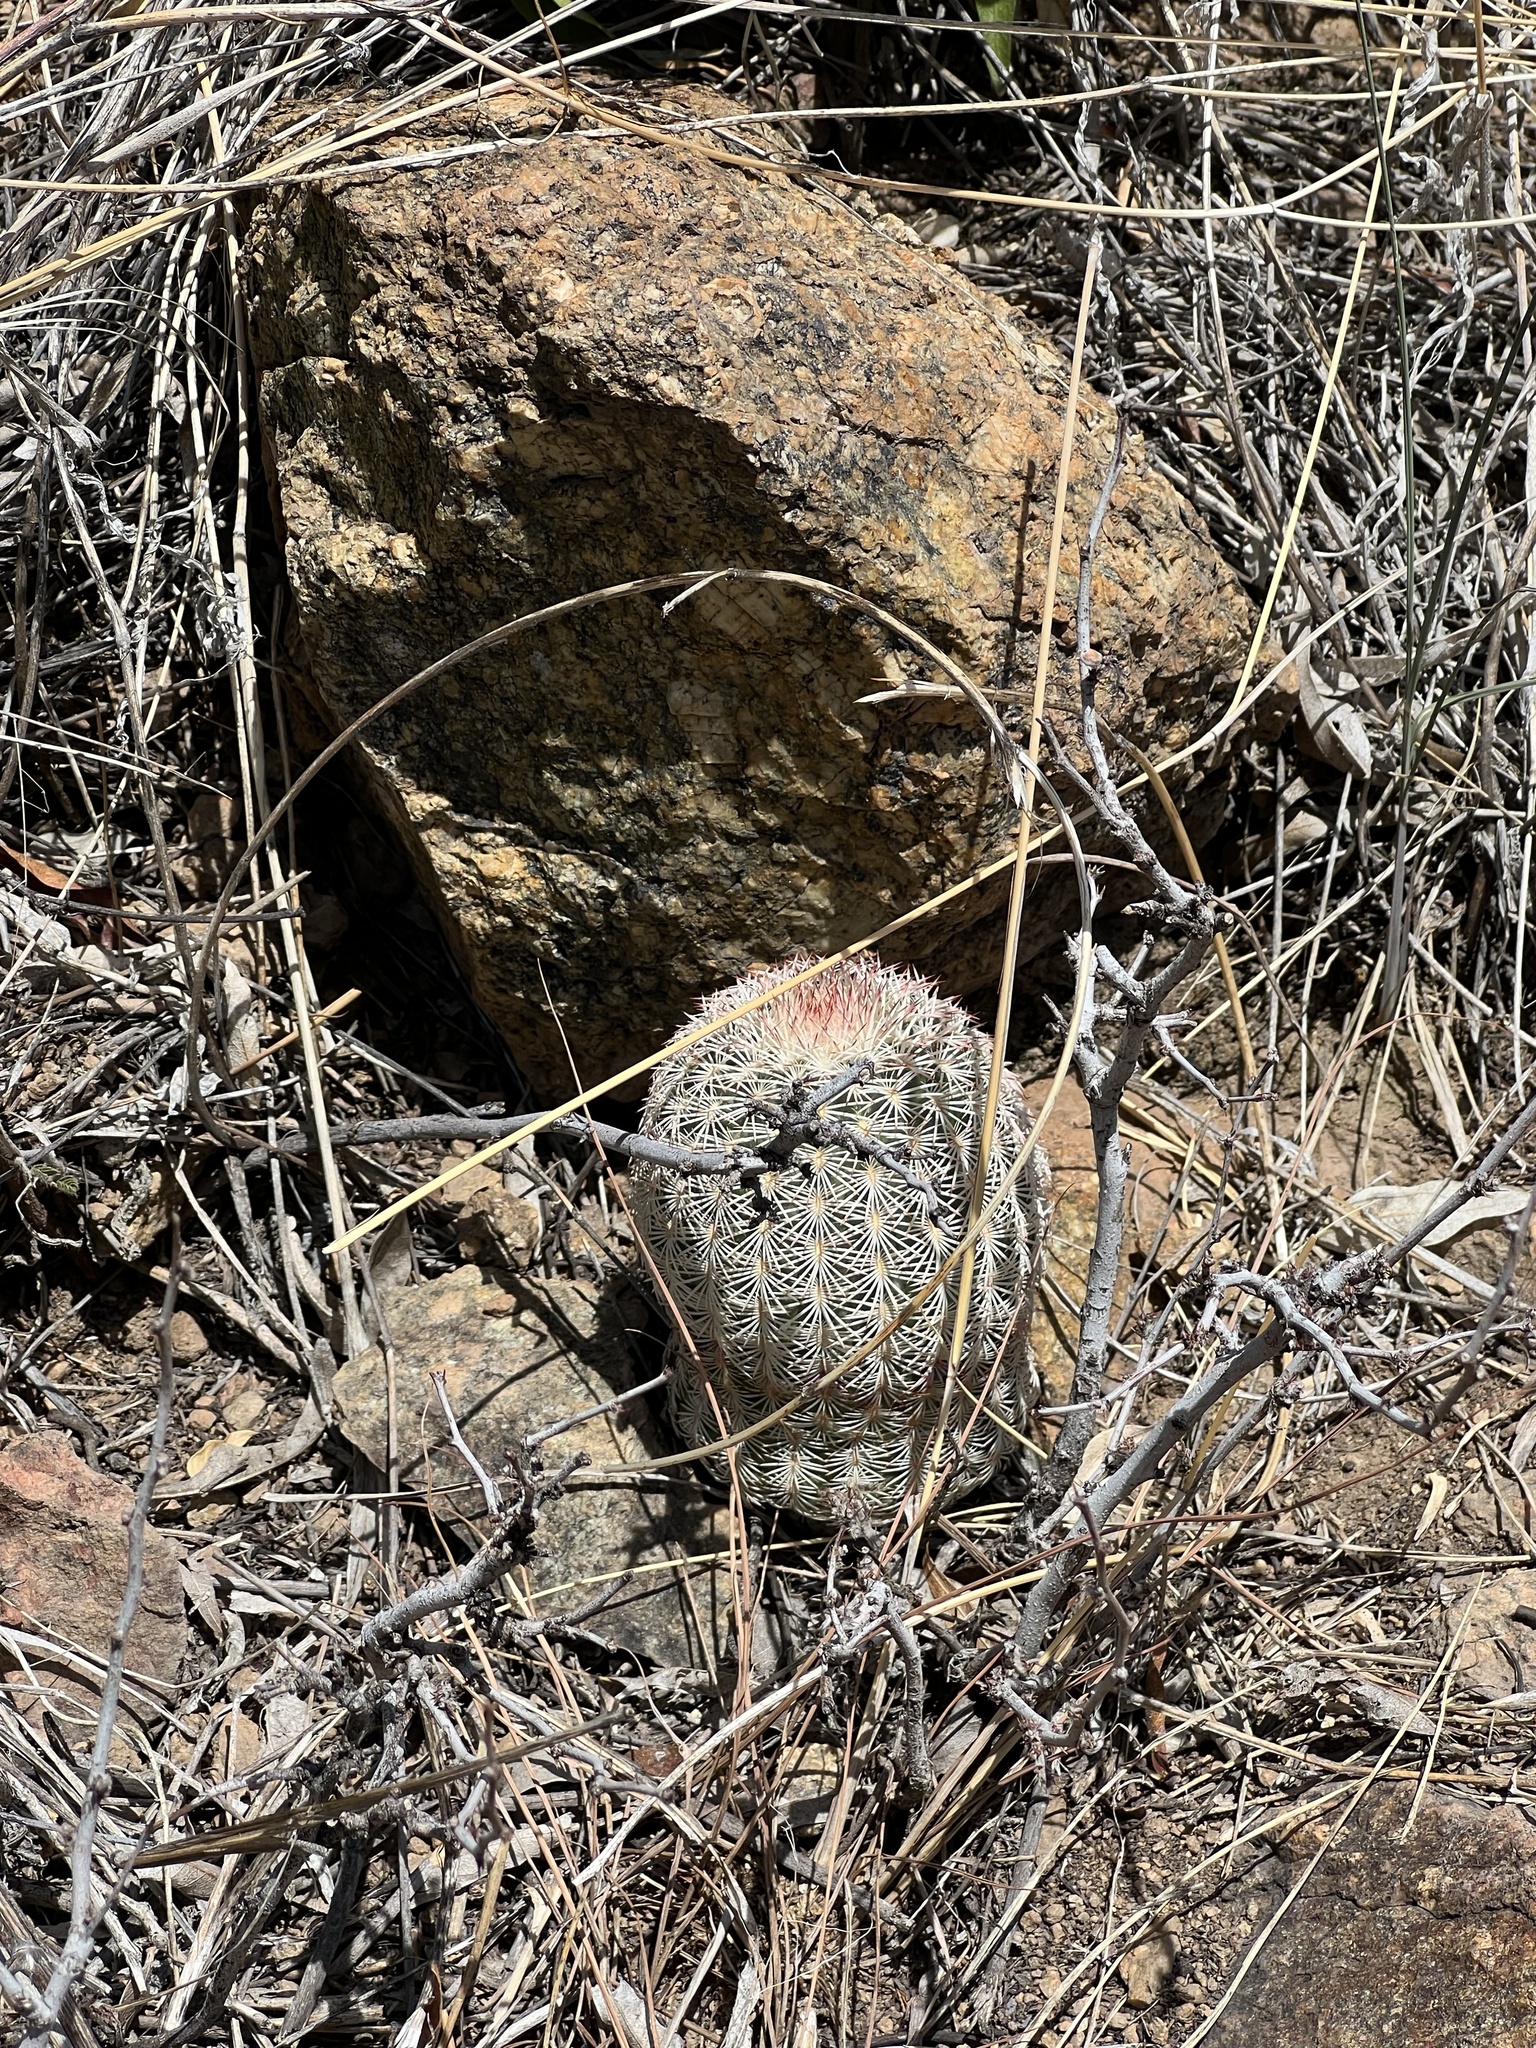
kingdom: Plantae
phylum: Tracheophyta
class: Magnoliopsida
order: Caryophyllales
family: Cactaceae
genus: Echinocereus
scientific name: Echinocereus rigidissimus
